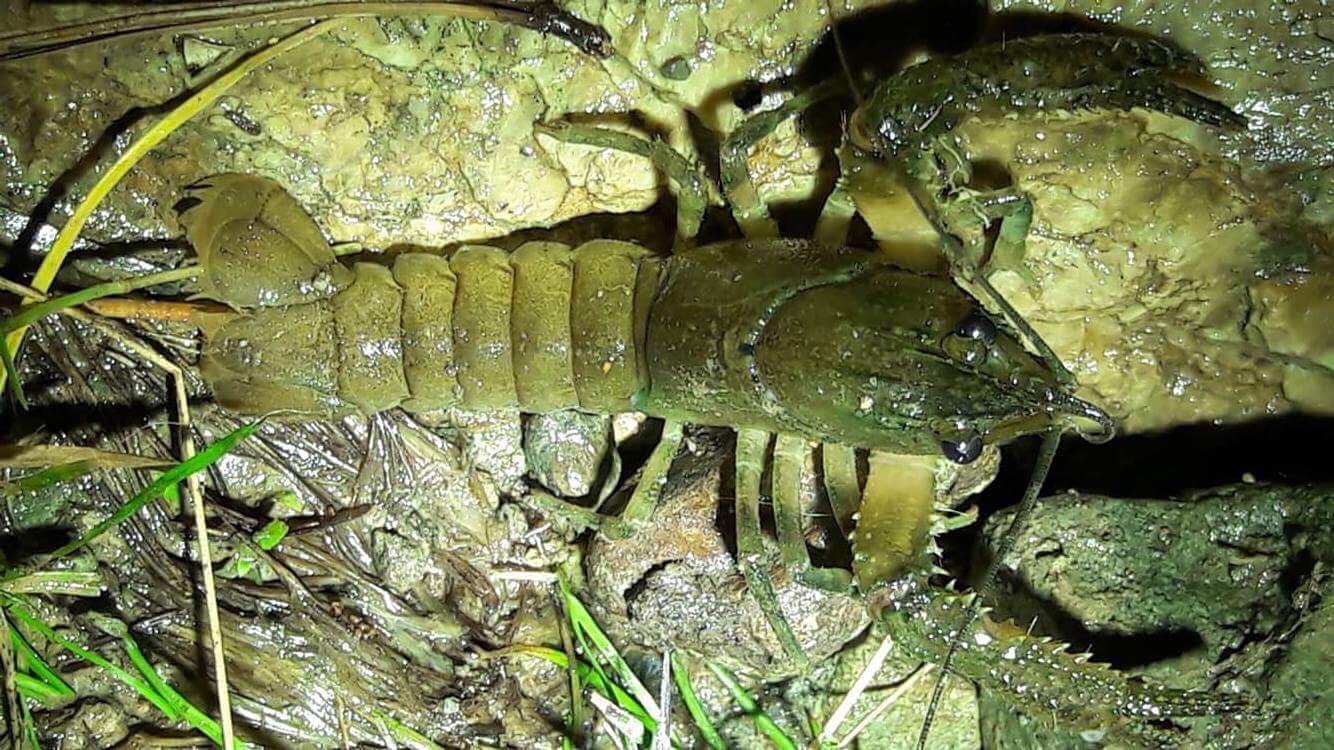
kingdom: Animalia
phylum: Arthropoda
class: Malacostraca
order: Decapoda
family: Parastacidae
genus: Paranephrops
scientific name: Paranephrops planifrons
